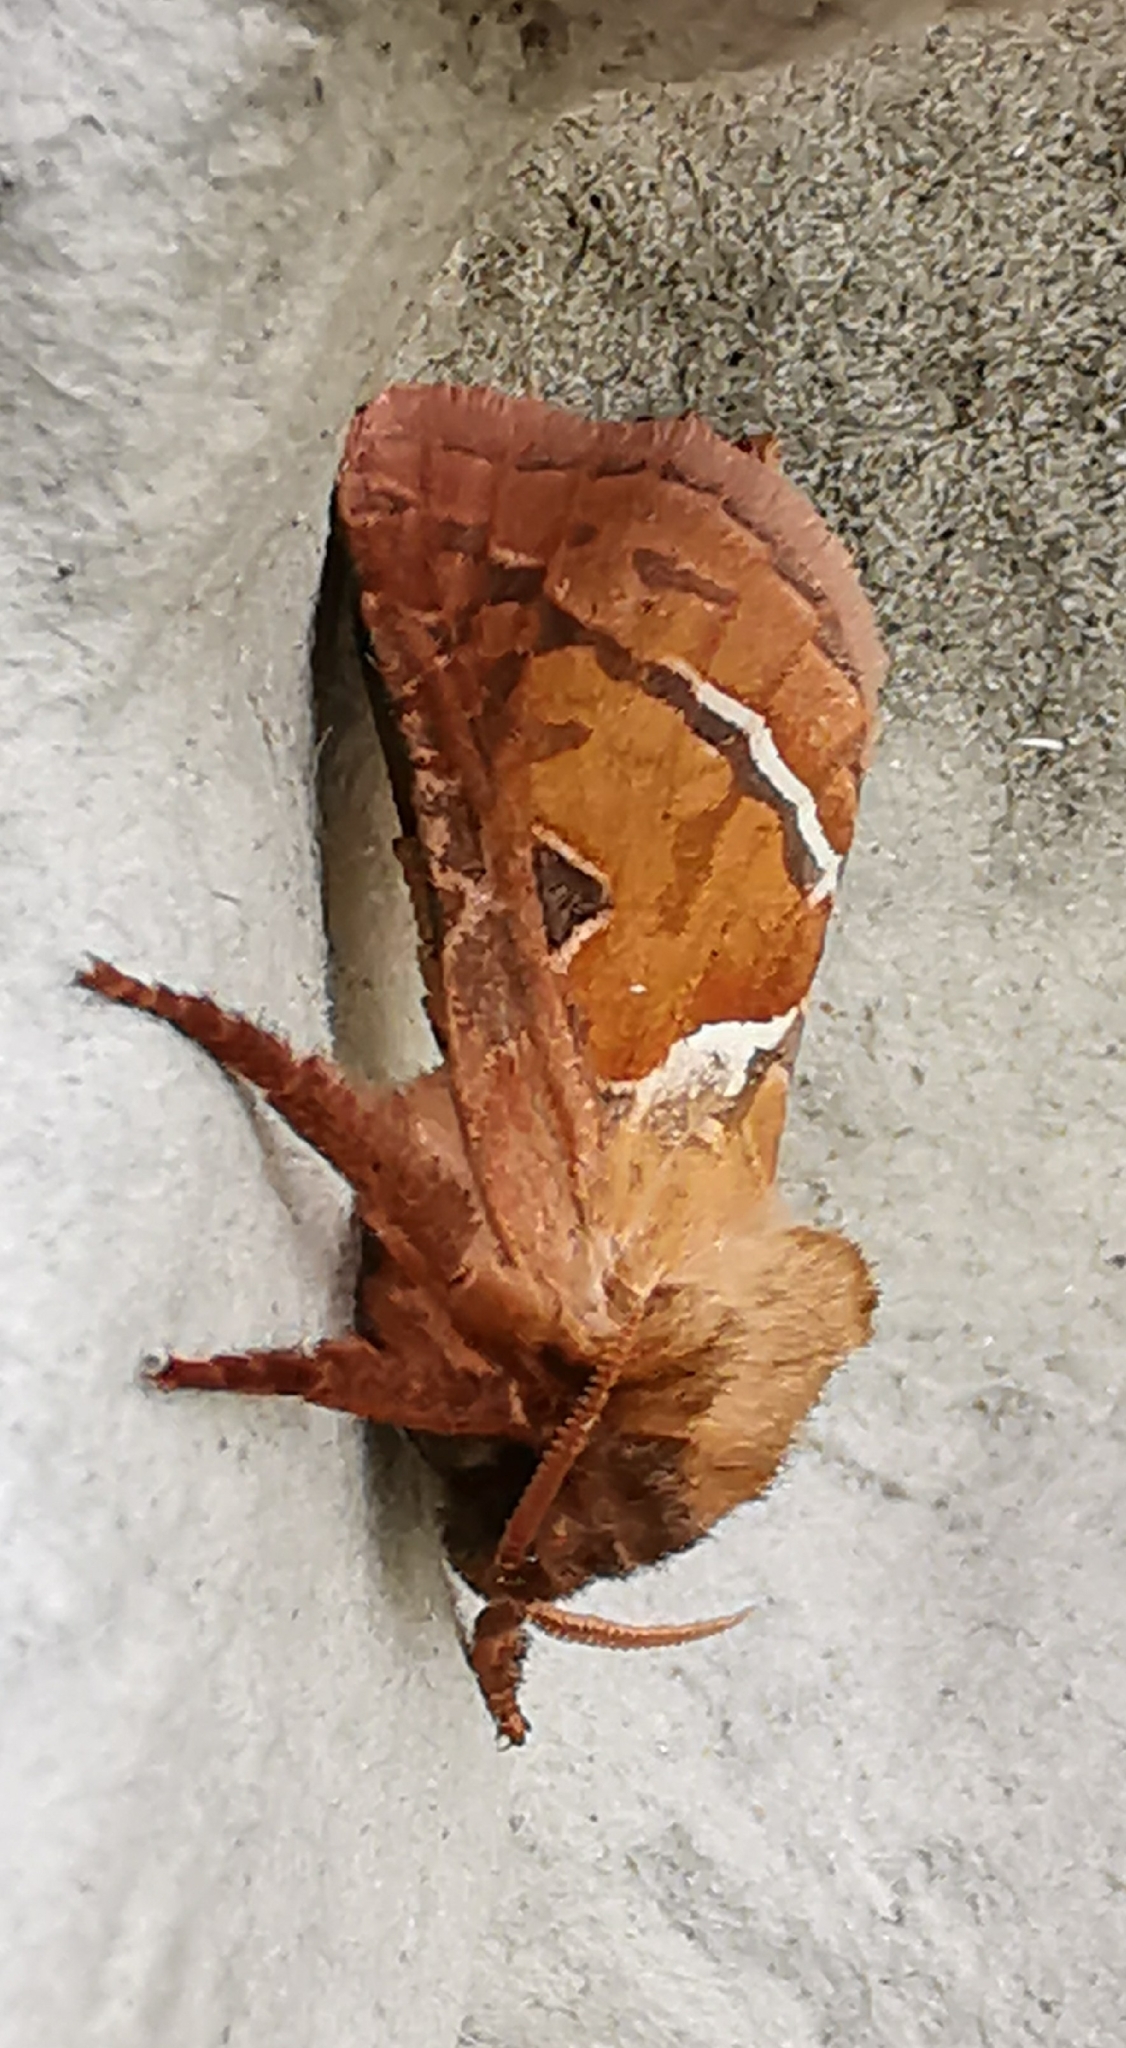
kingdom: Animalia
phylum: Arthropoda
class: Insecta
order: Lepidoptera
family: Hepialidae
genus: Triodia
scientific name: Triodia sylvina
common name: Orange swift
